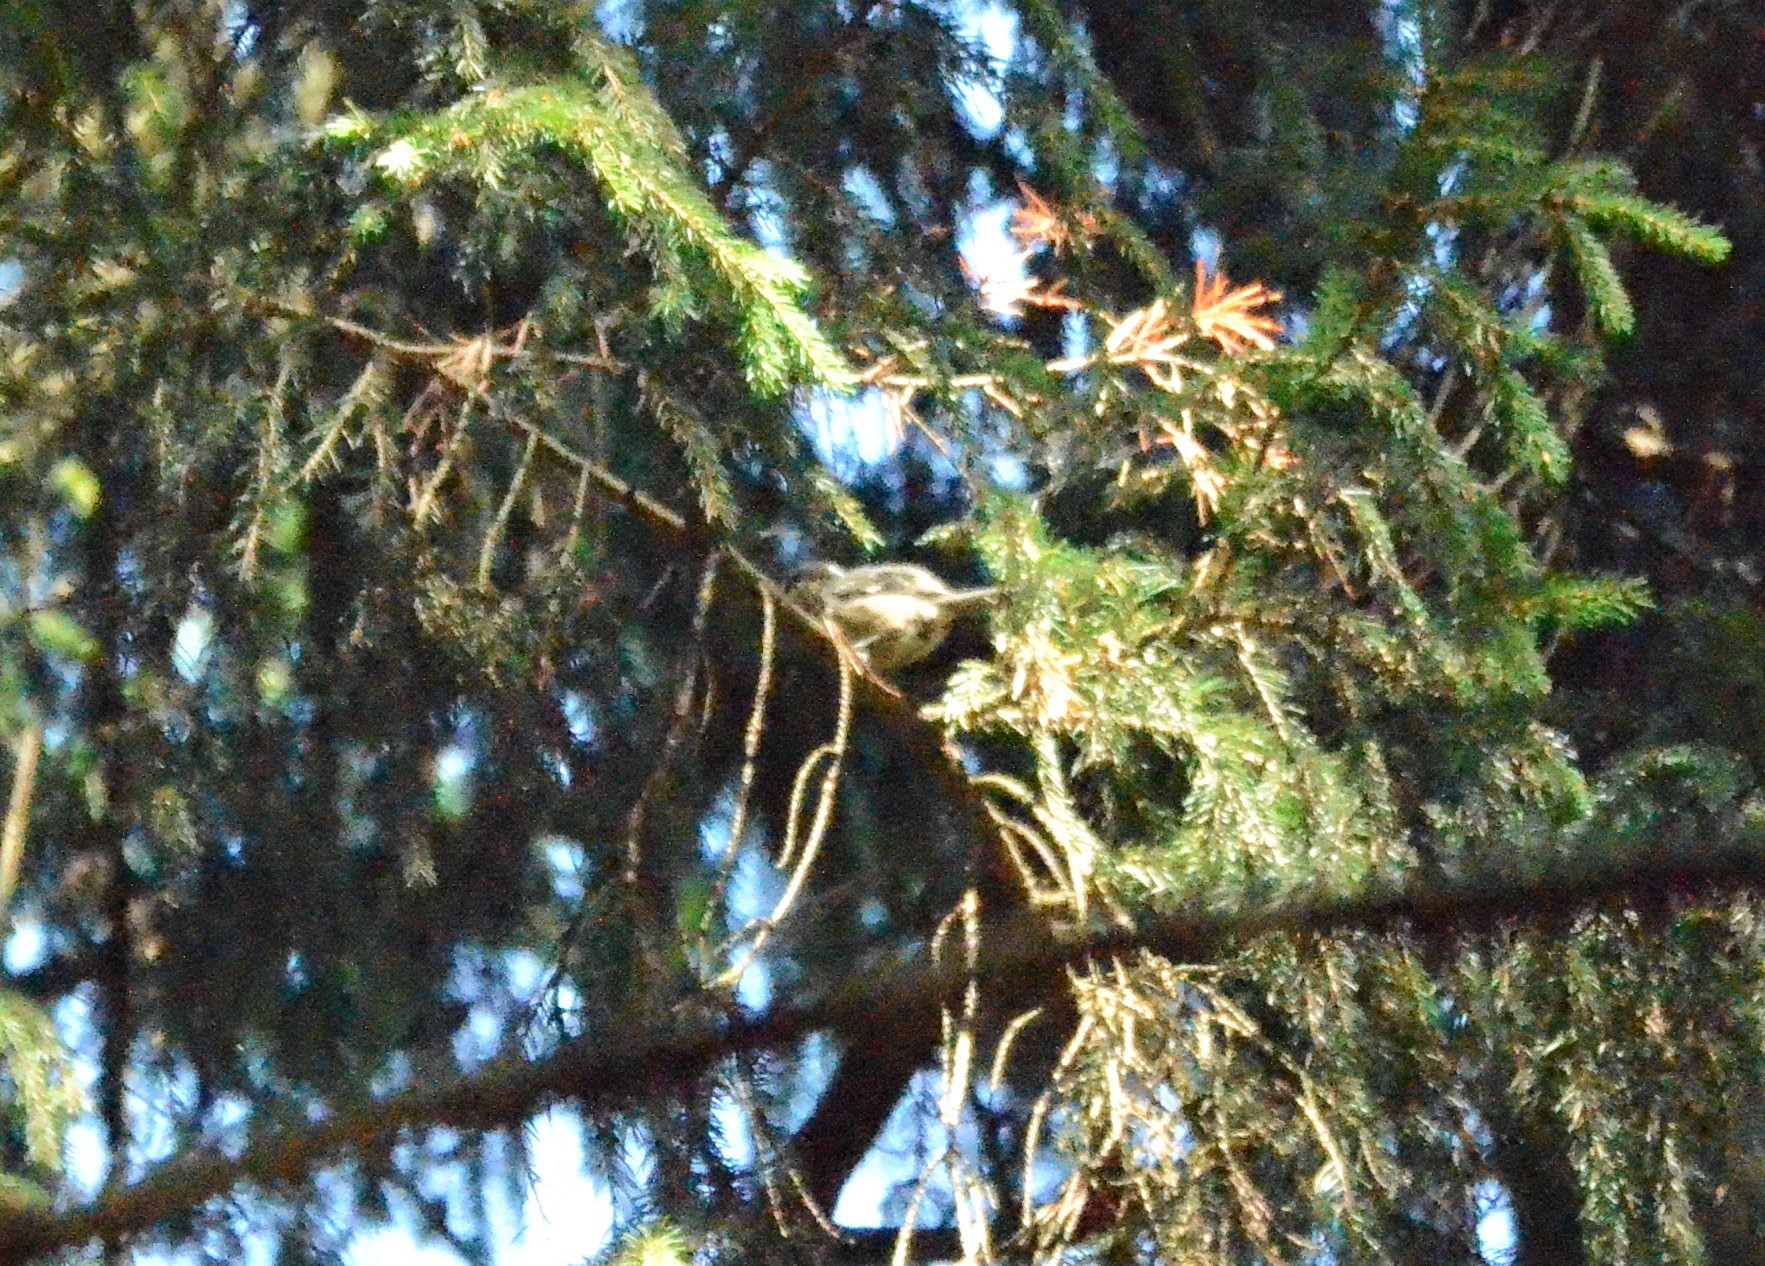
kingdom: Animalia
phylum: Chordata
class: Aves
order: Passeriformes
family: Paridae
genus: Periparus
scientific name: Periparus ater
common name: Coal tit
